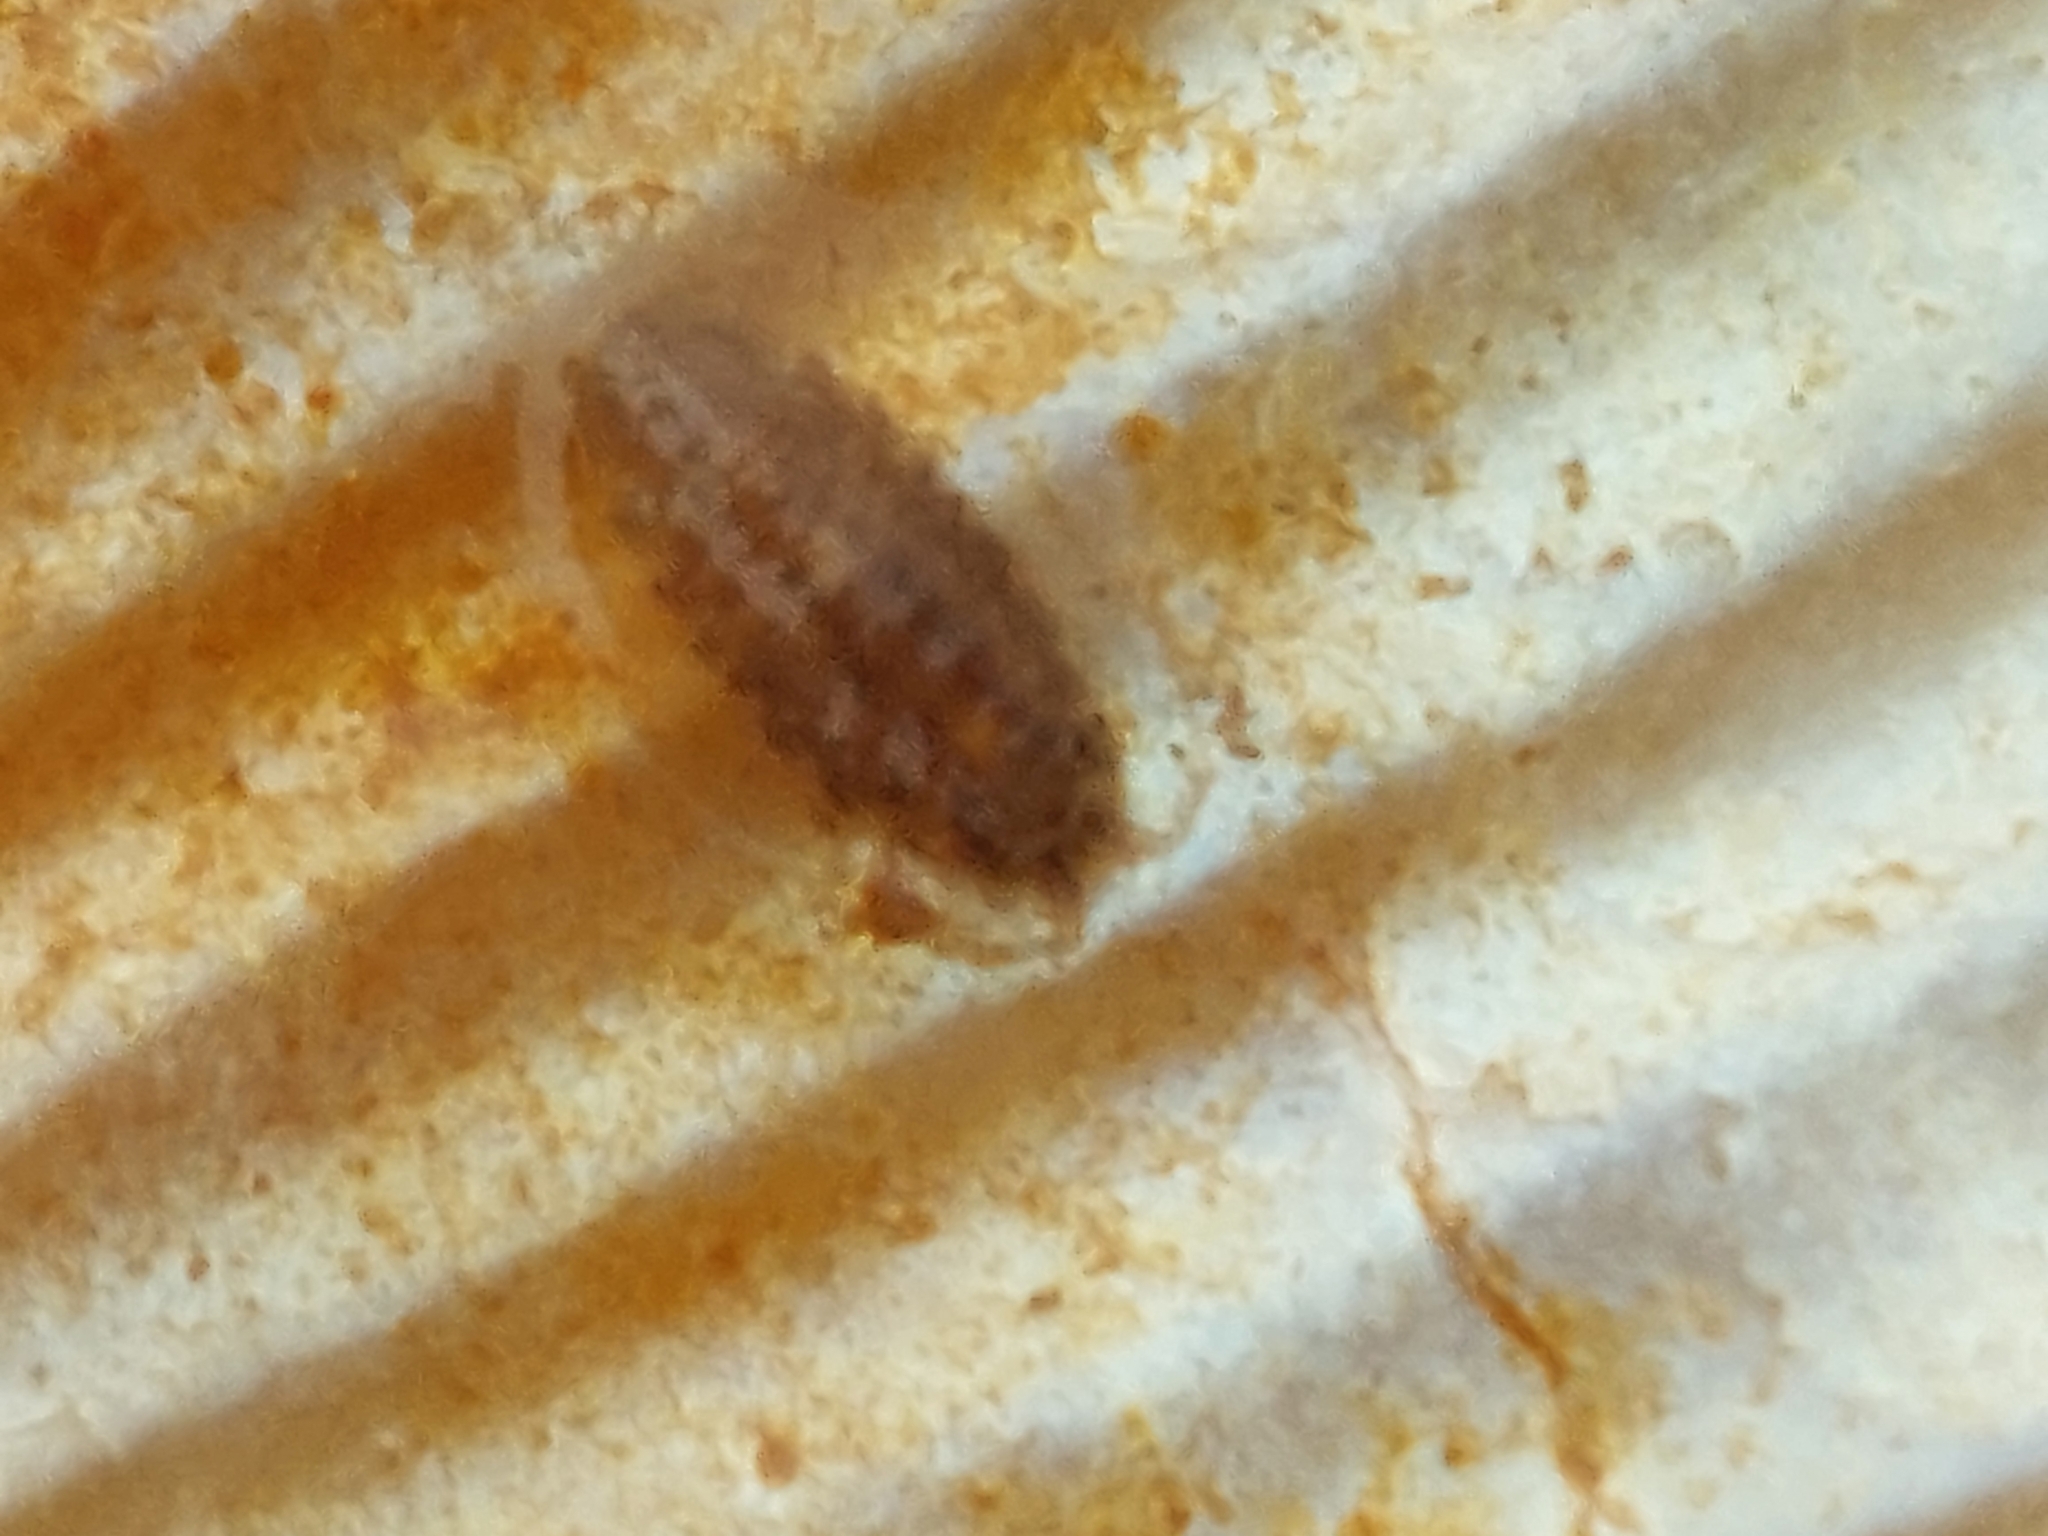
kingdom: Animalia
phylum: Arthropoda
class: Malacostraca
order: Isopoda
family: Janiridae
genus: Jaera
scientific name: Jaera
